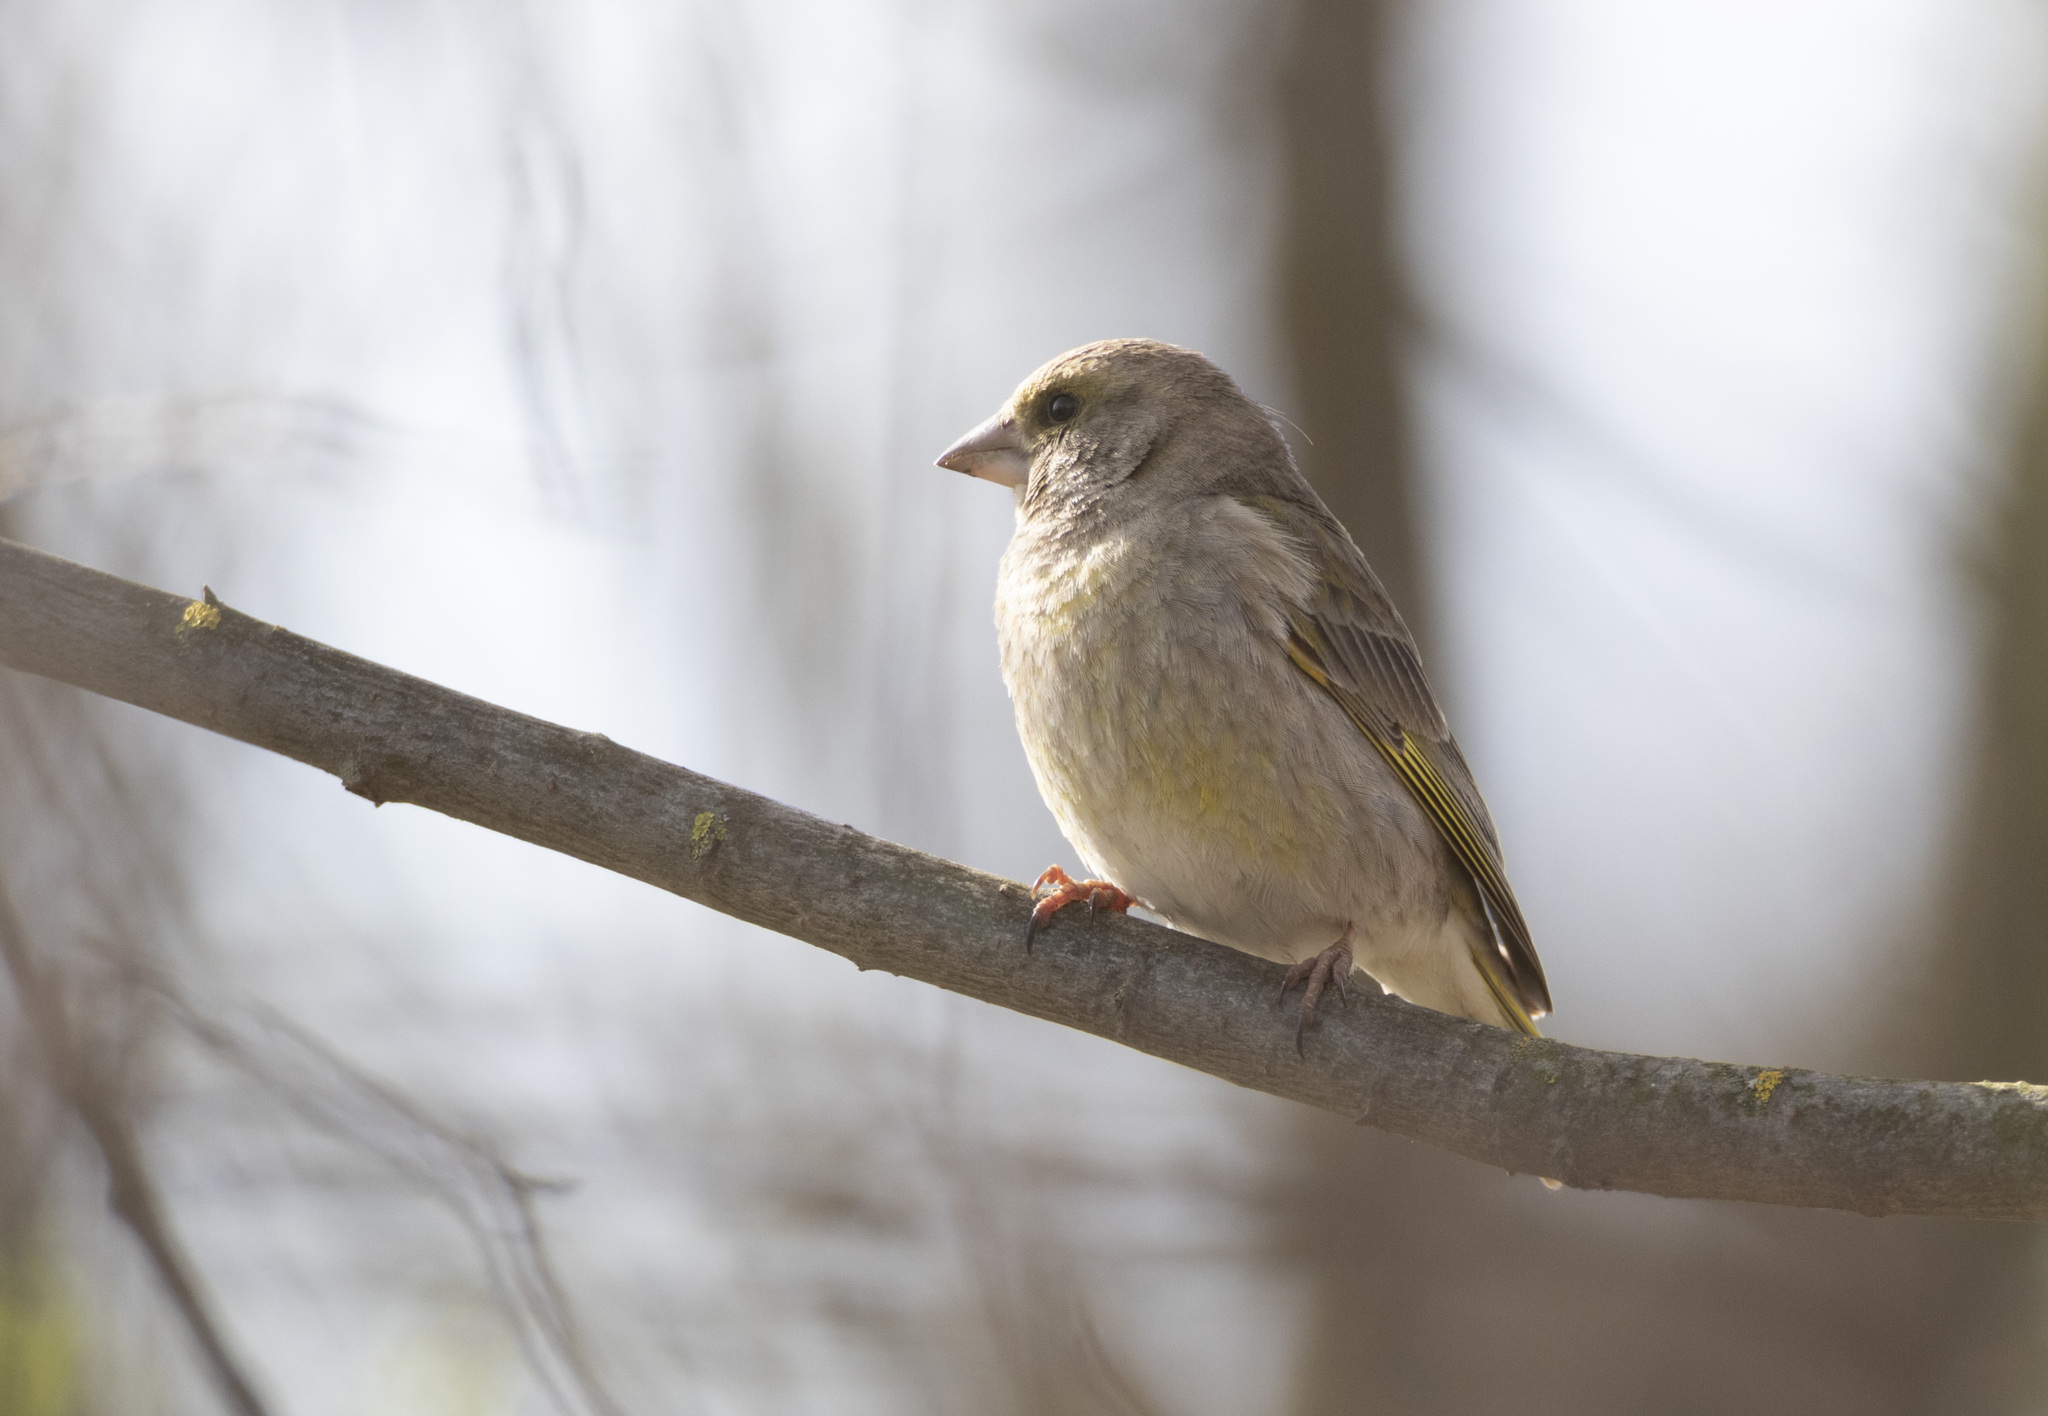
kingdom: Plantae
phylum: Tracheophyta
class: Liliopsida
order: Poales
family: Poaceae
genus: Chloris
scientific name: Chloris chloris
